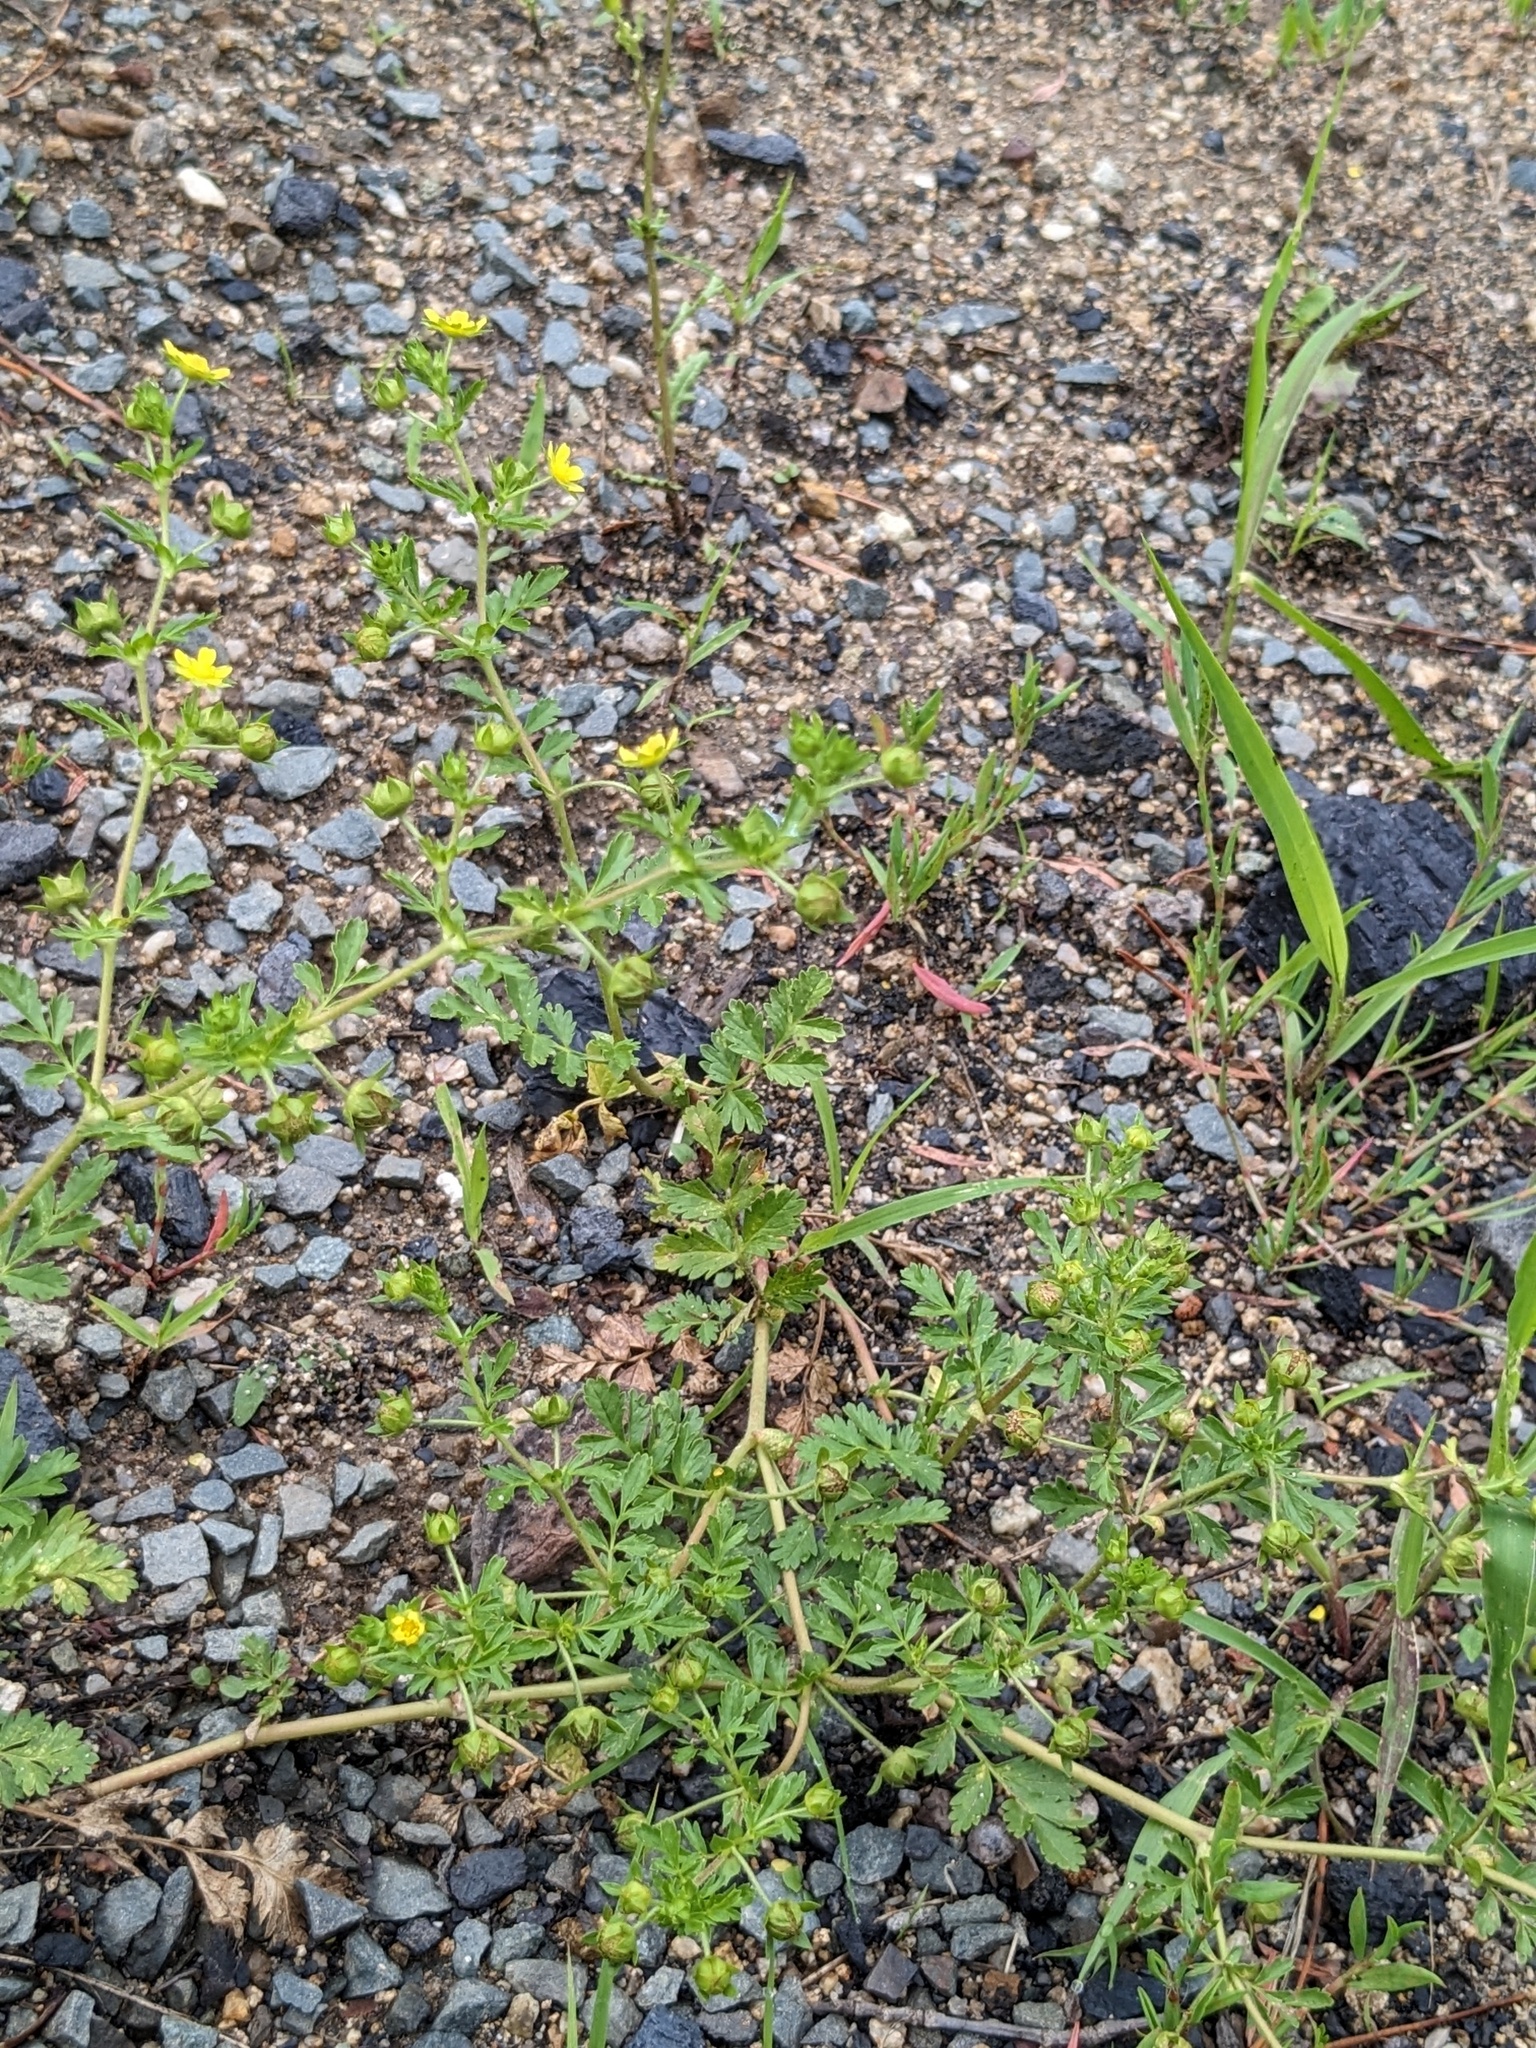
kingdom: Plantae
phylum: Tracheophyta
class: Magnoliopsida
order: Rosales
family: Rosaceae
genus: Potentilla
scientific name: Potentilla supina
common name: Prostrate cinquefoil
